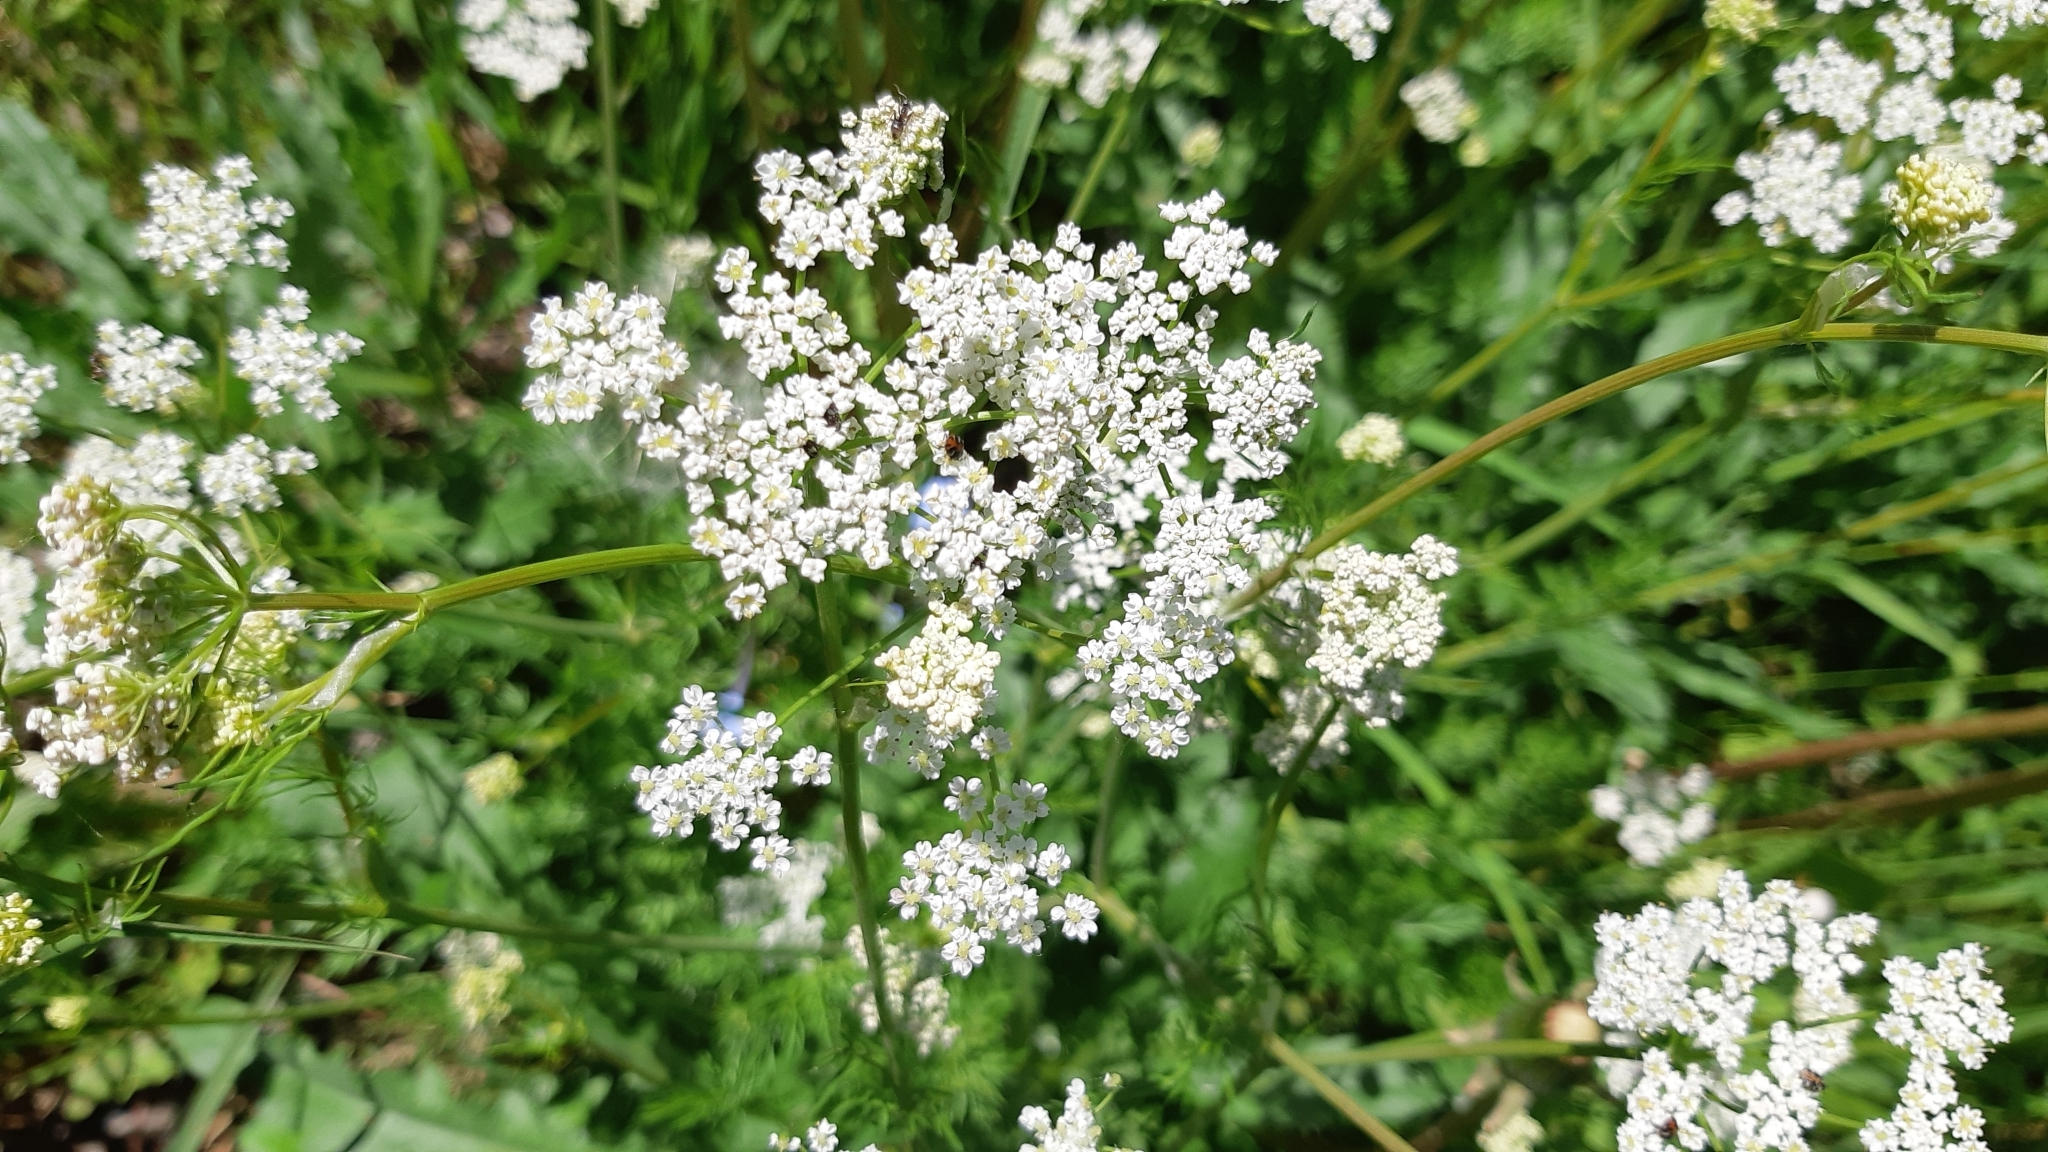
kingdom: Plantae
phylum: Tracheophyta
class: Magnoliopsida
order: Apiales
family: Apiaceae
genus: Carum
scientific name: Carum carvi
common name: Caraway
